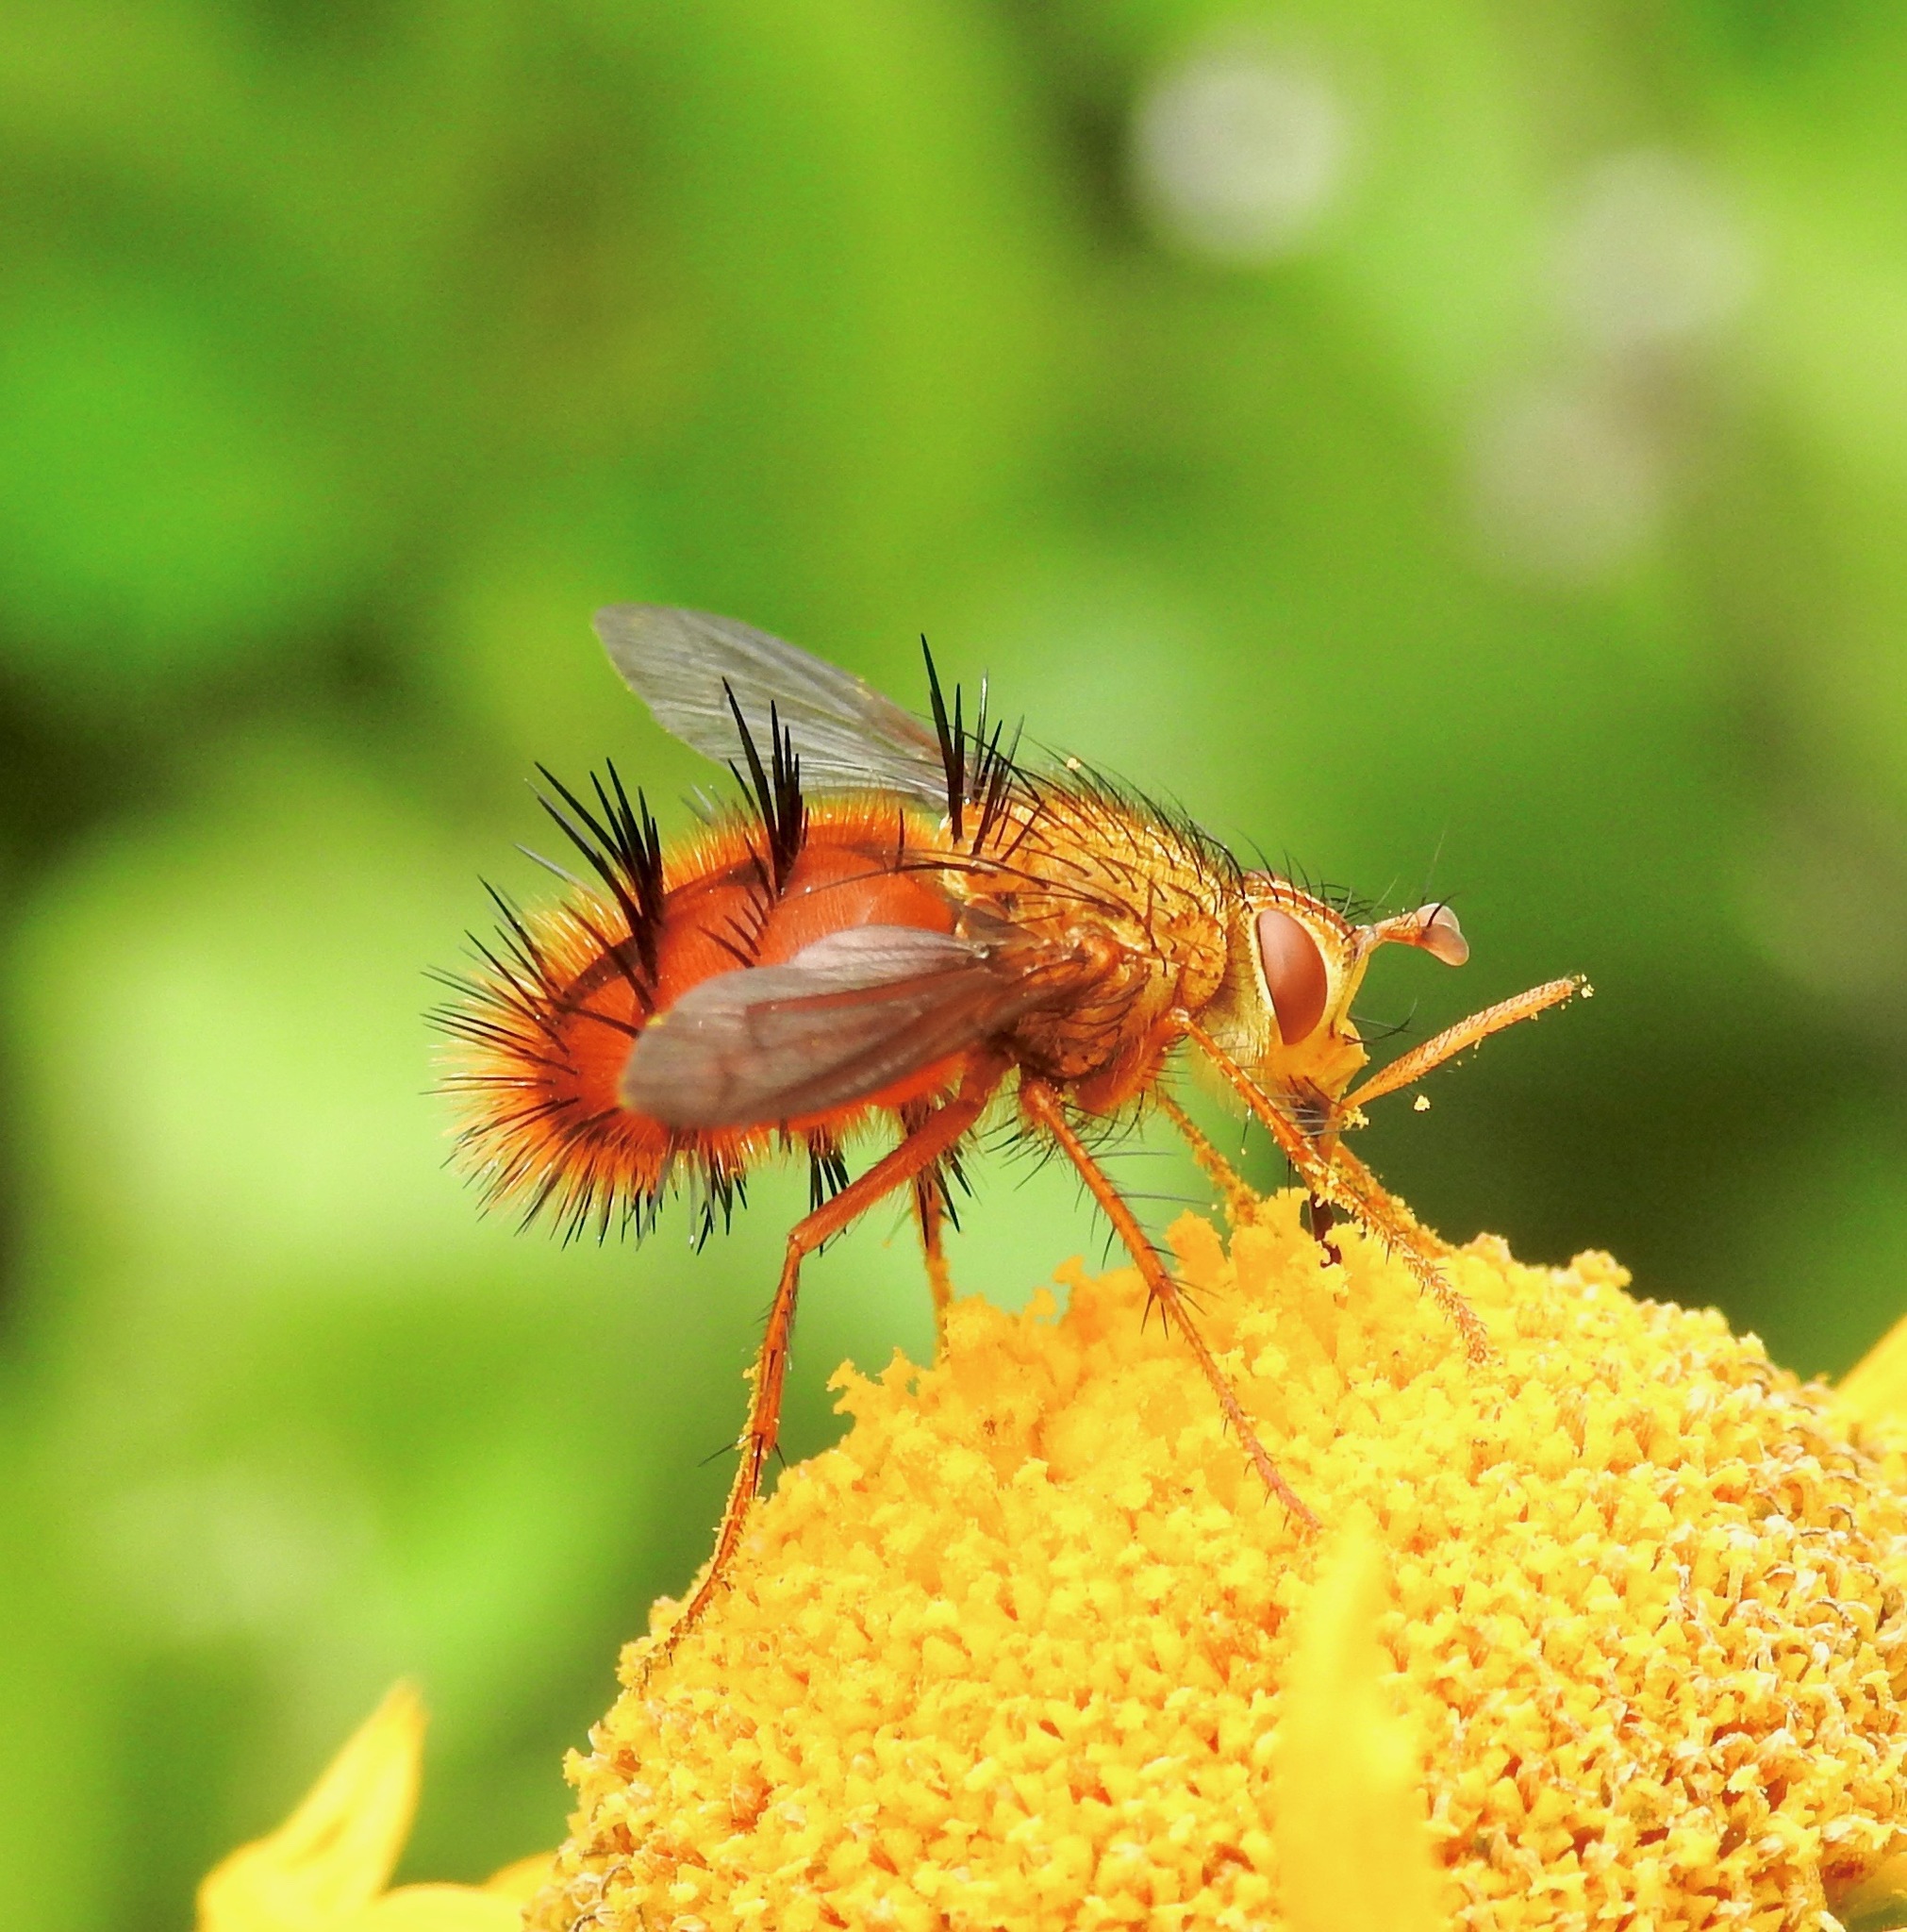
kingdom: Animalia
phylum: Arthropoda
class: Insecta
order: Diptera
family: Tachinidae
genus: Adejeania
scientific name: Adejeania vexatrix
